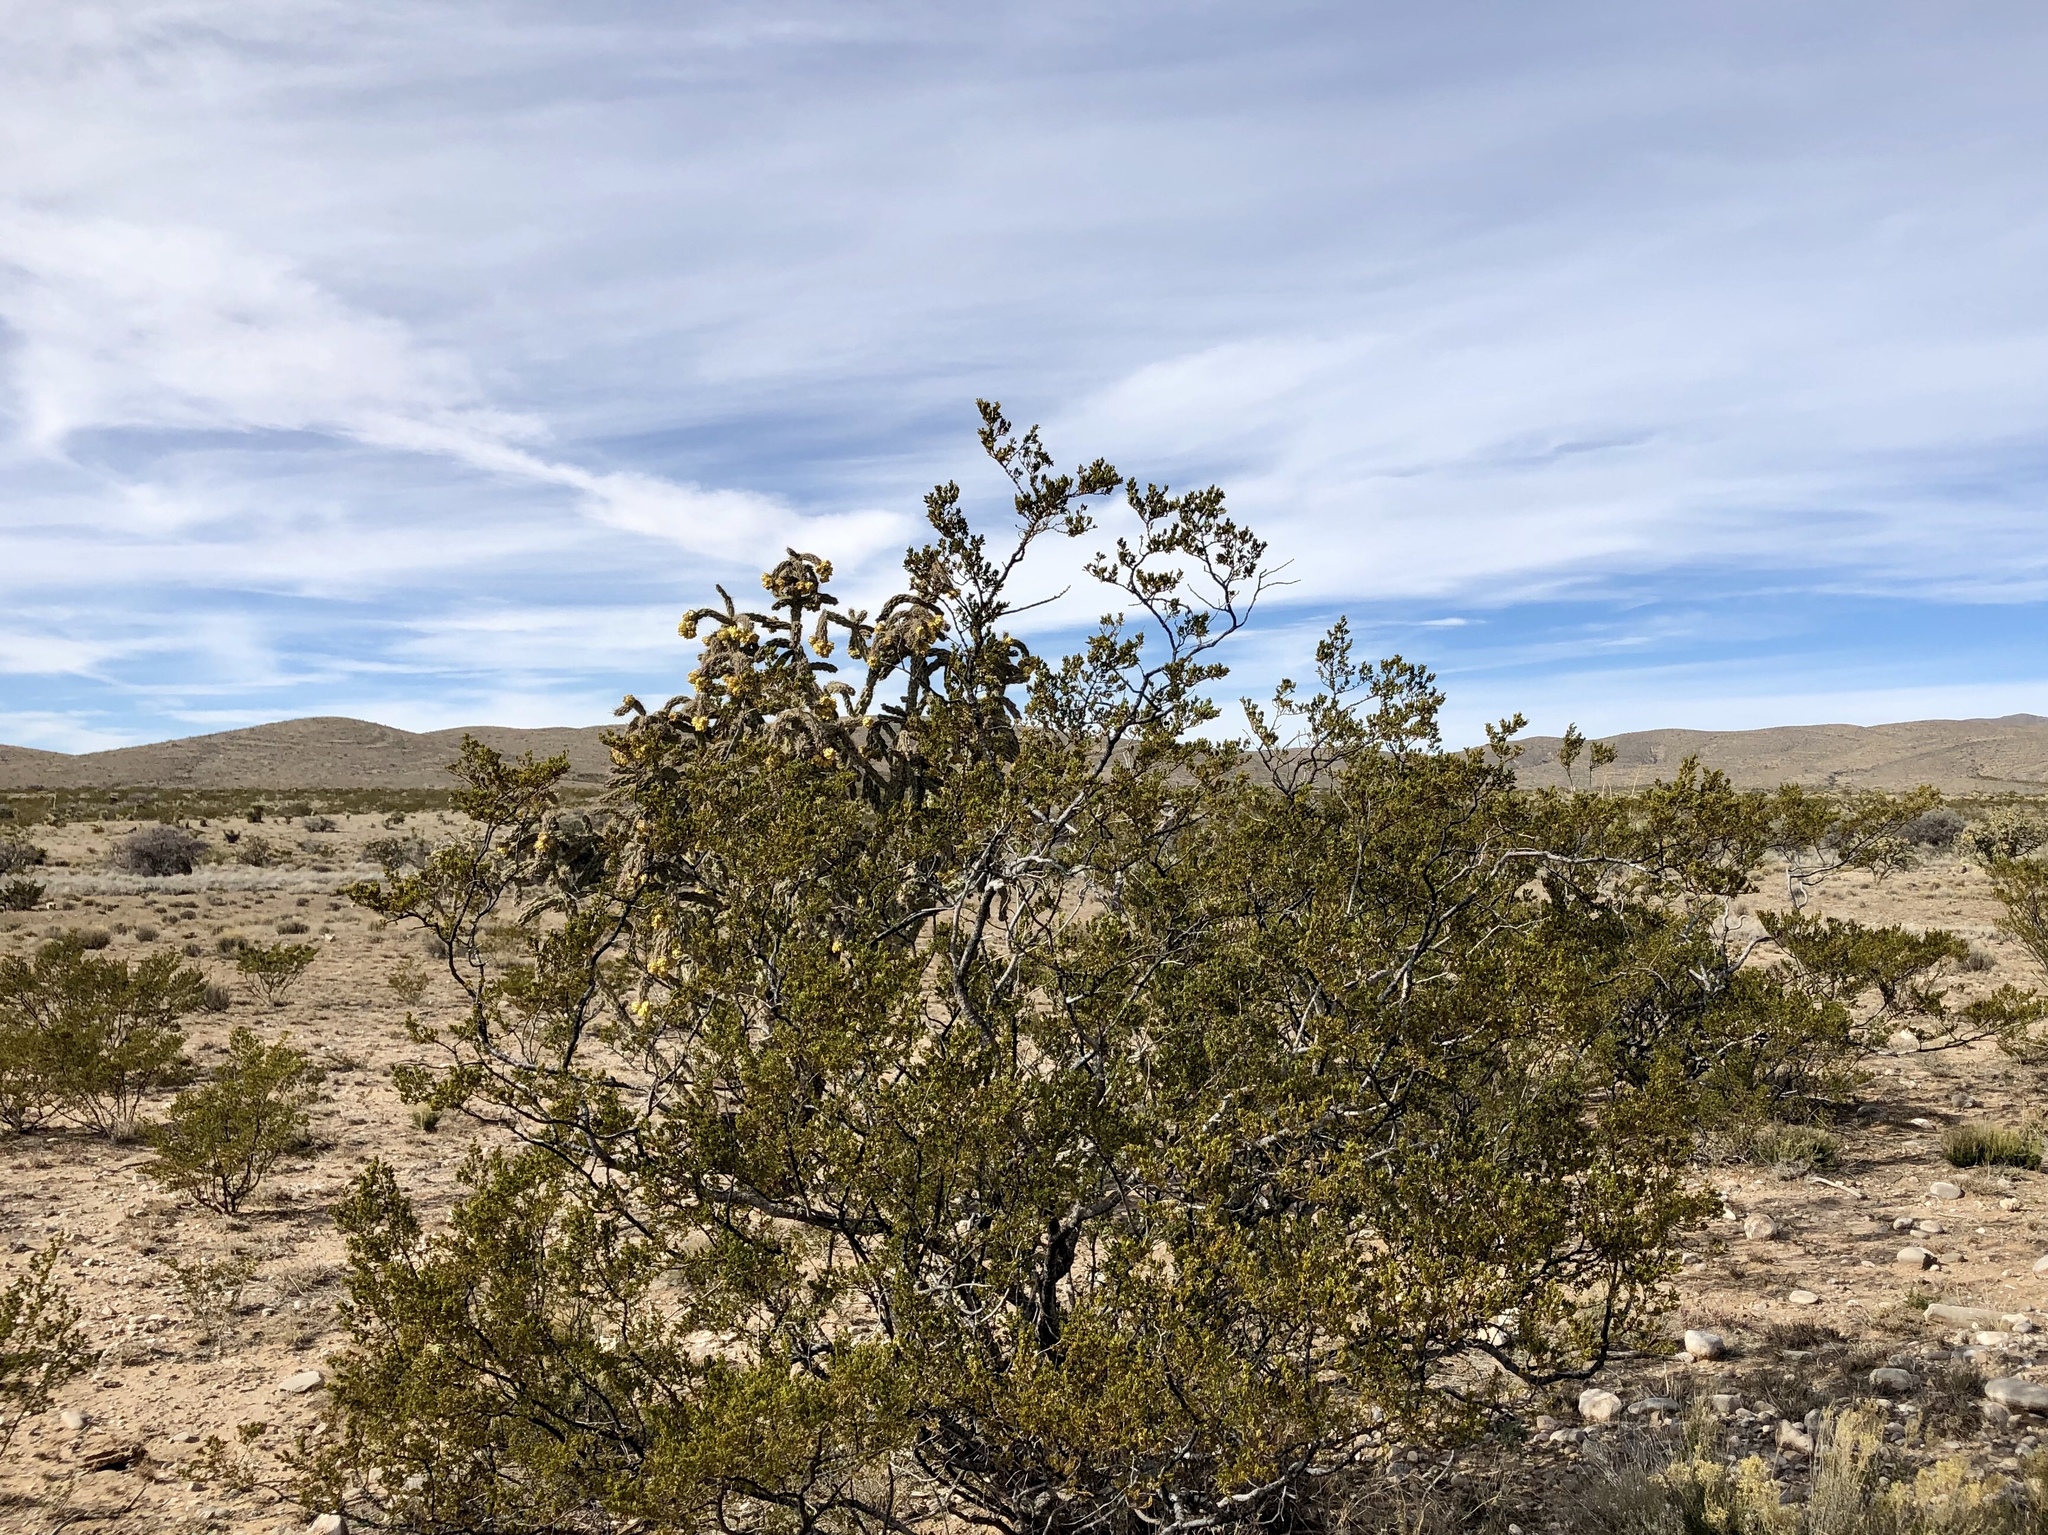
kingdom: Plantae
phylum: Tracheophyta
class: Magnoliopsida
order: Zygophyllales
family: Zygophyllaceae
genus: Larrea
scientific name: Larrea tridentata
